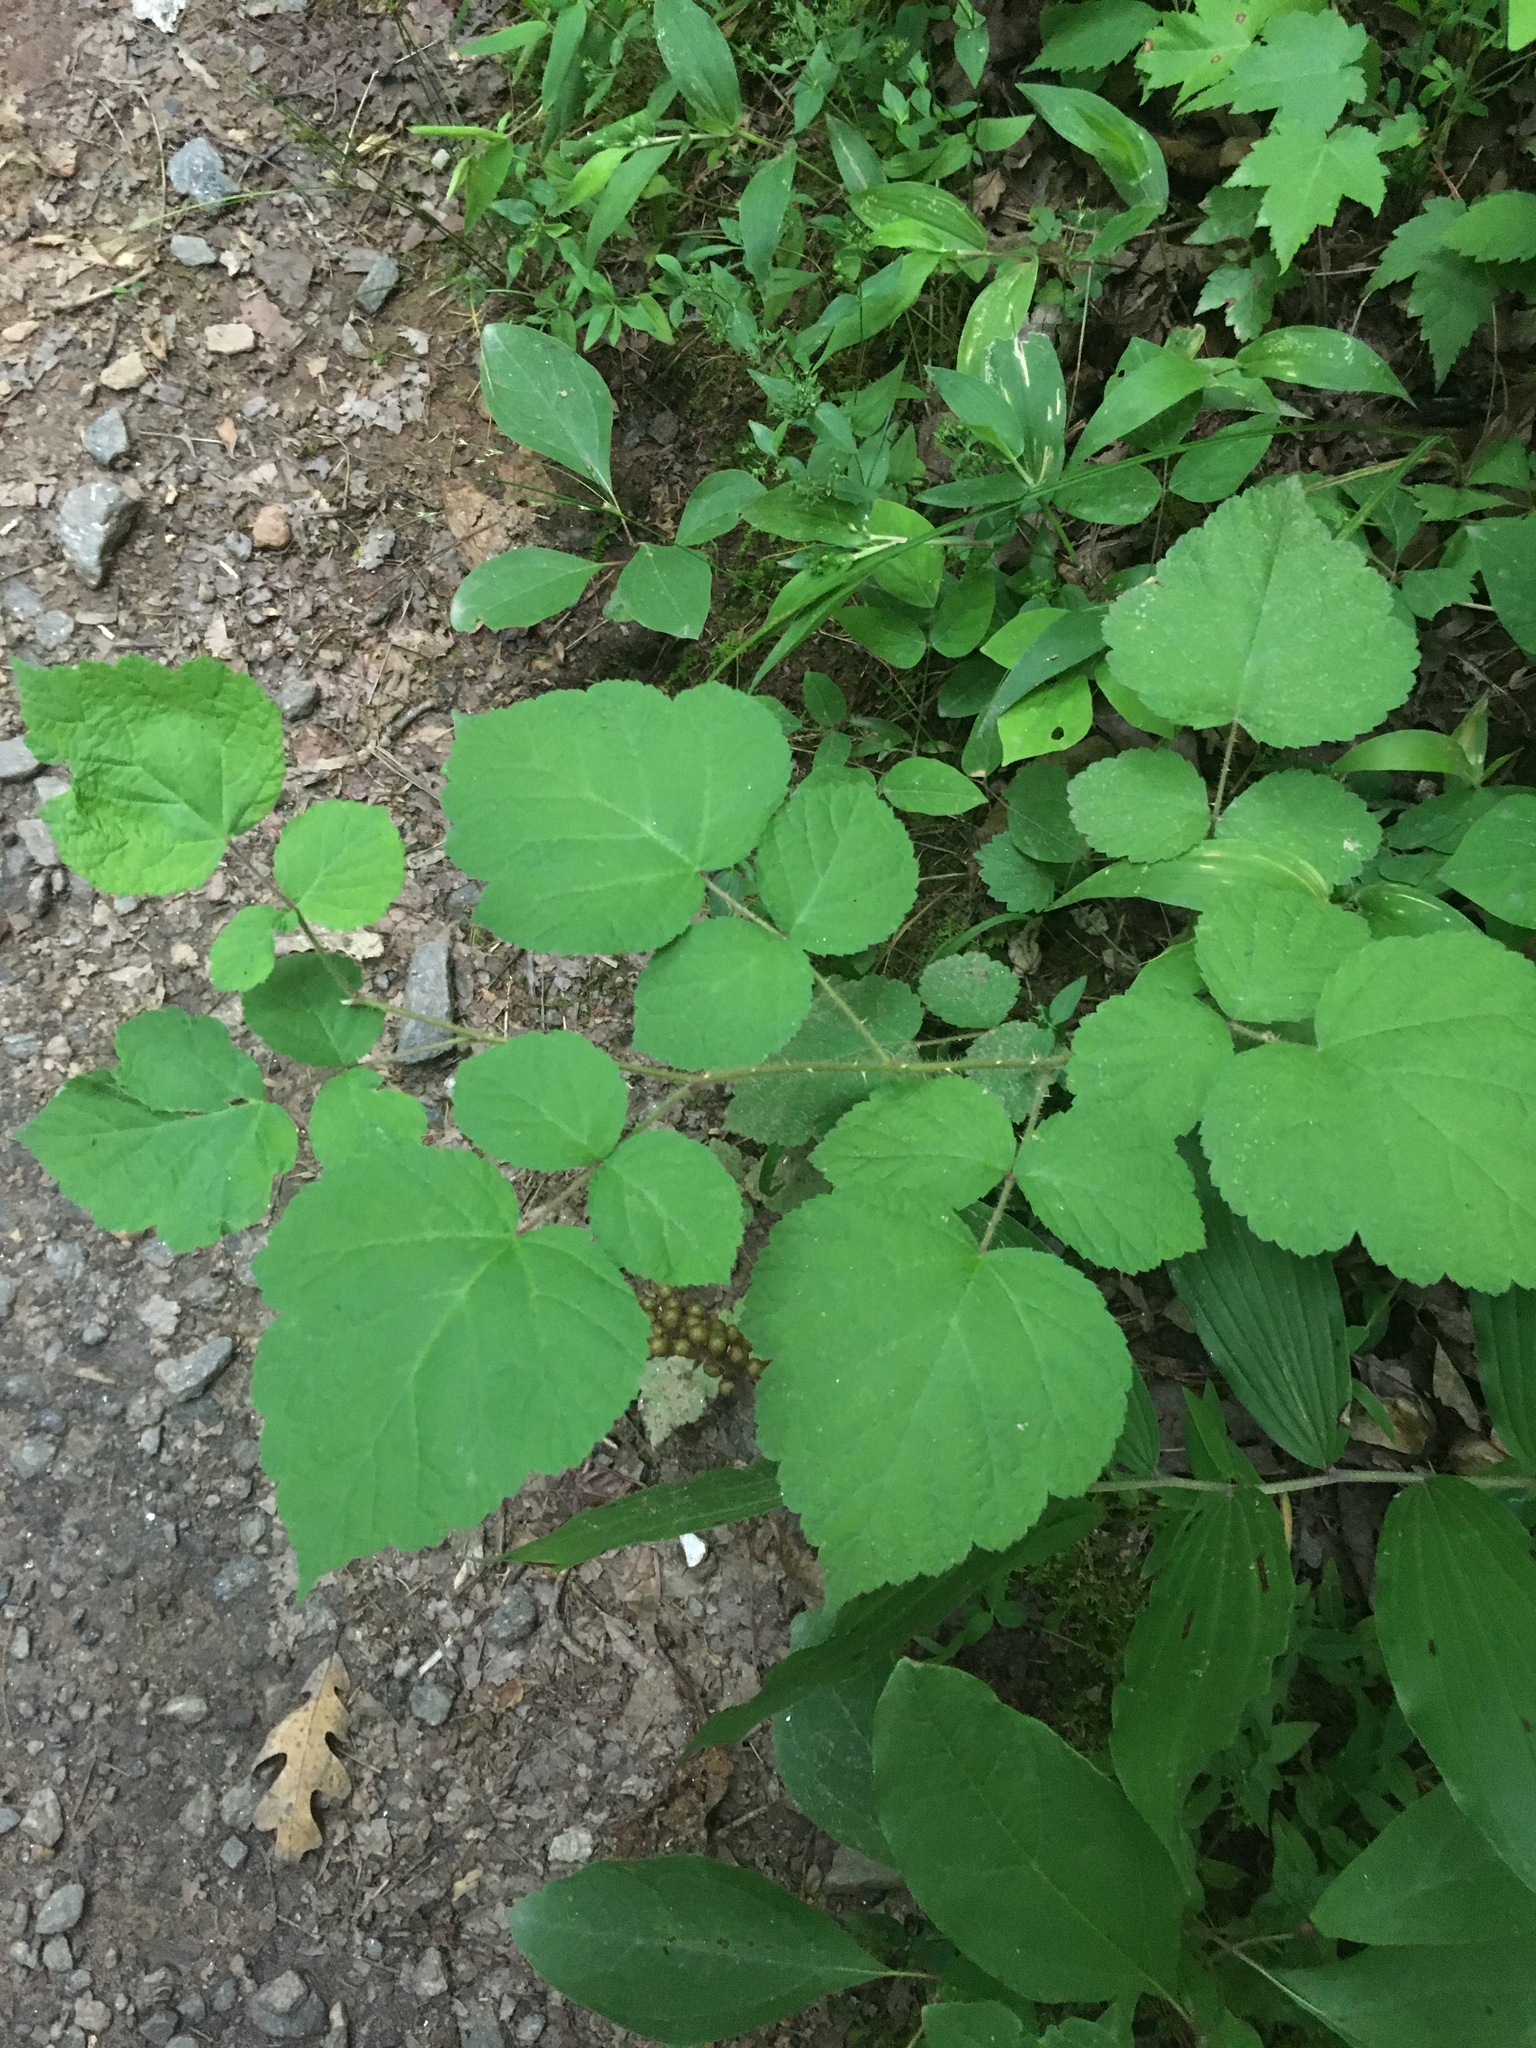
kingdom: Plantae
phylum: Tracheophyta
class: Magnoliopsida
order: Rosales
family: Rosaceae
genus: Rubus
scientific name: Rubus phoenicolasius
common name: Japanese wineberry
